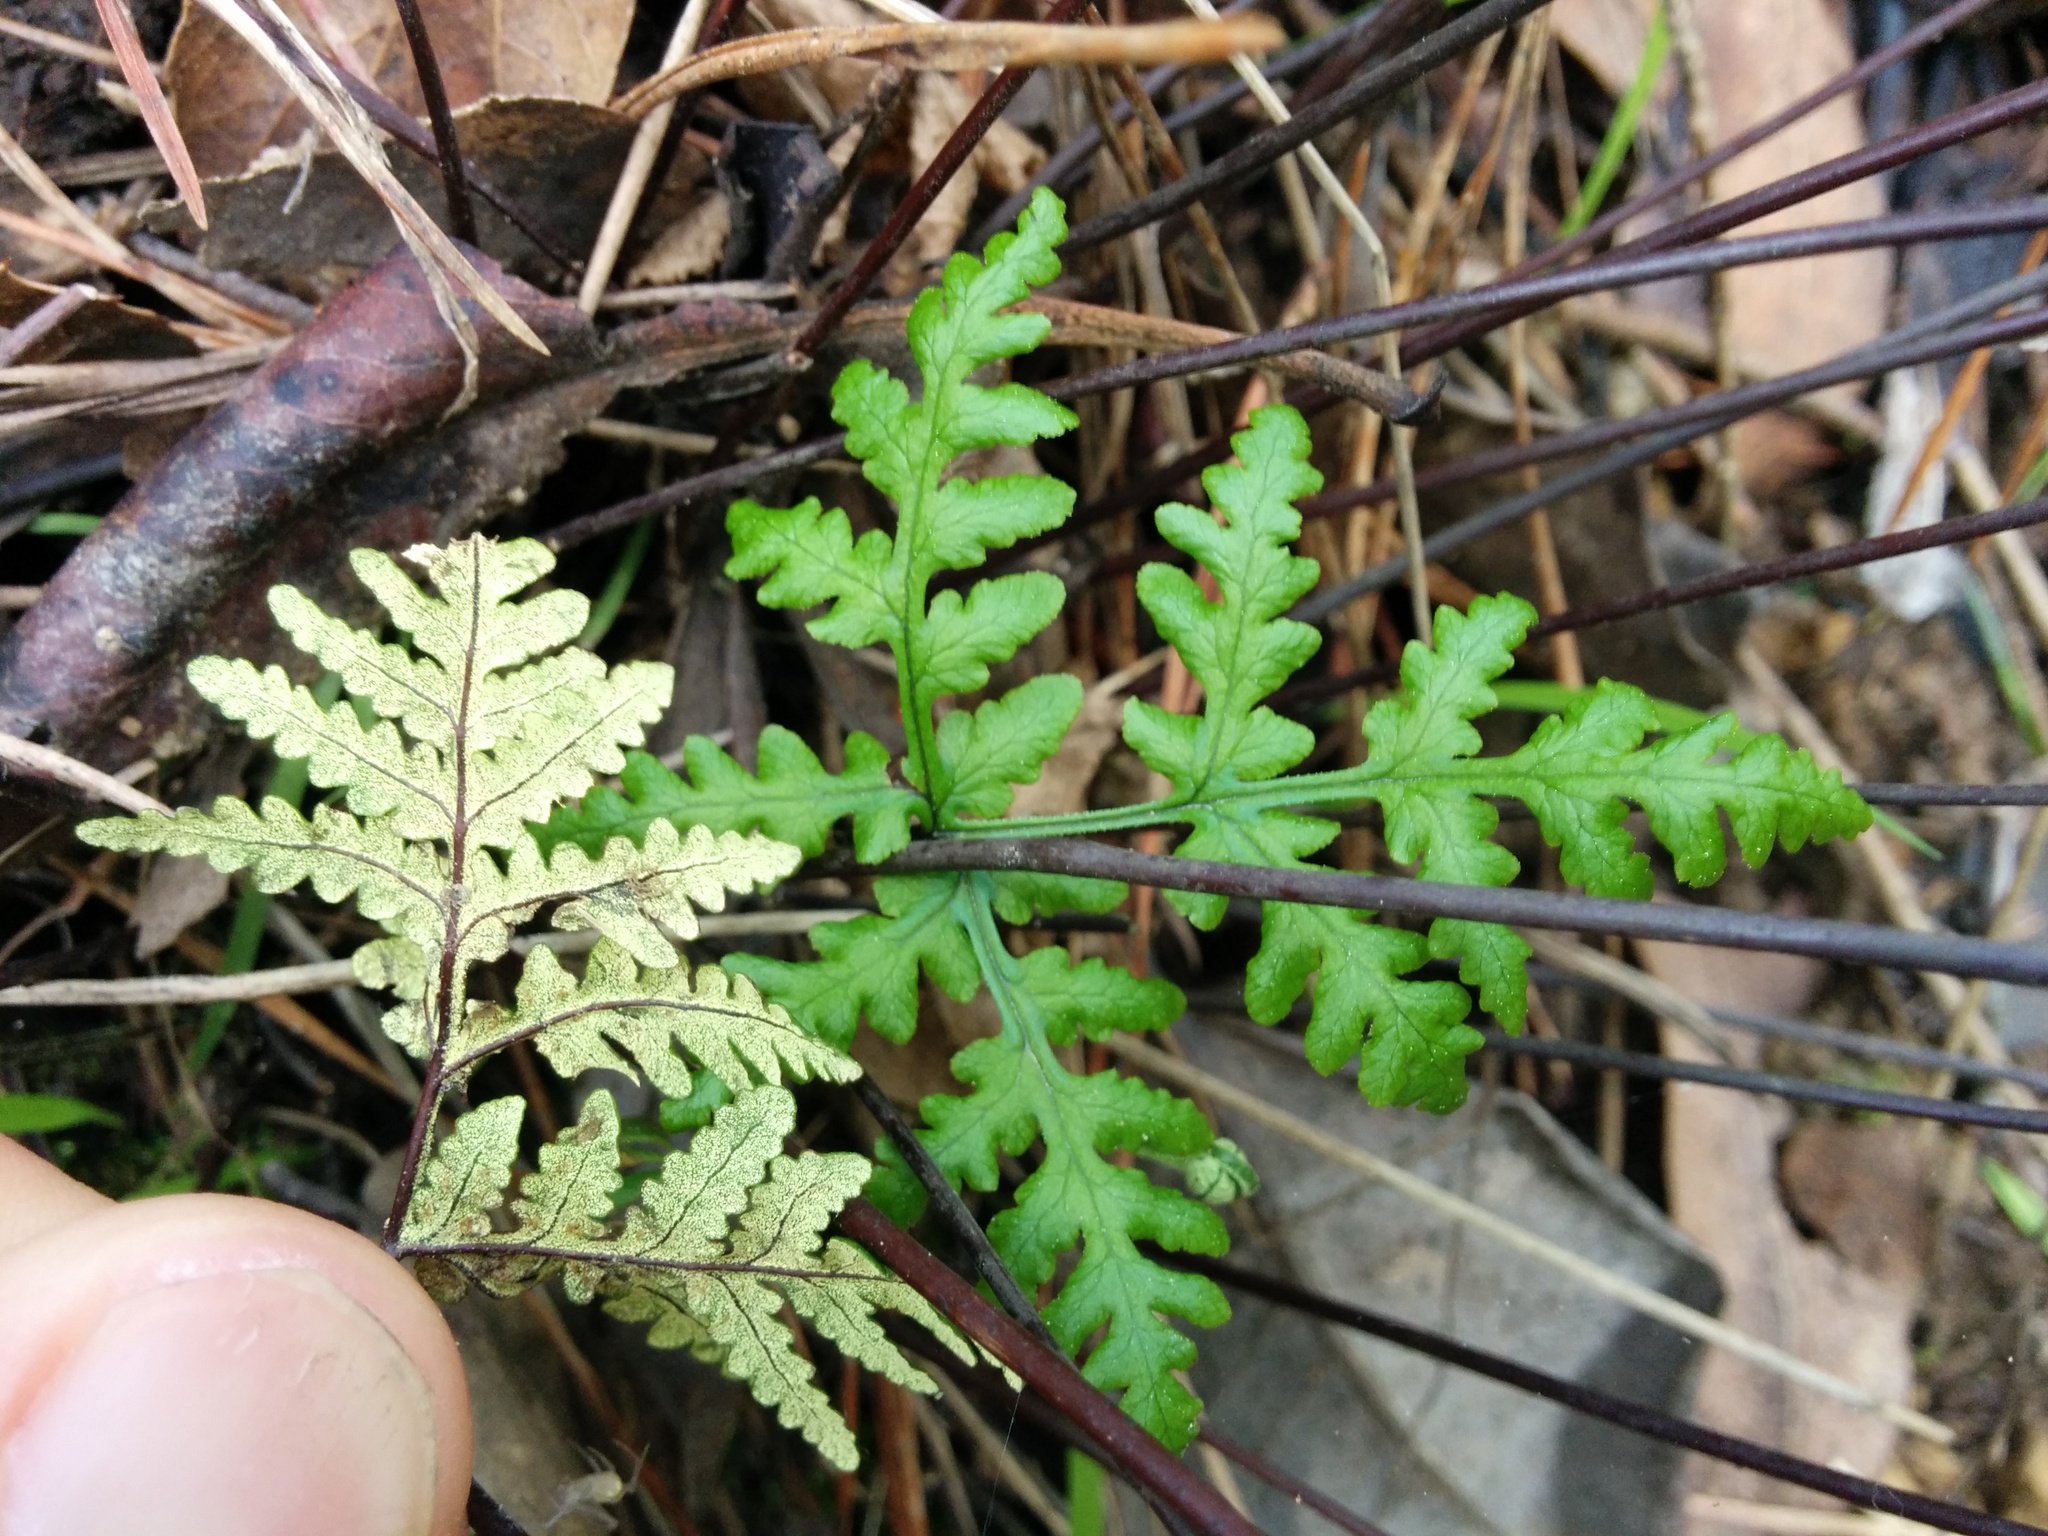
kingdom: Plantae
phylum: Tracheophyta
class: Polypodiopsida
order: Polypodiales
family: Pteridaceae
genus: Pentagramma
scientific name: Pentagramma triangularis
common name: Gold fern
